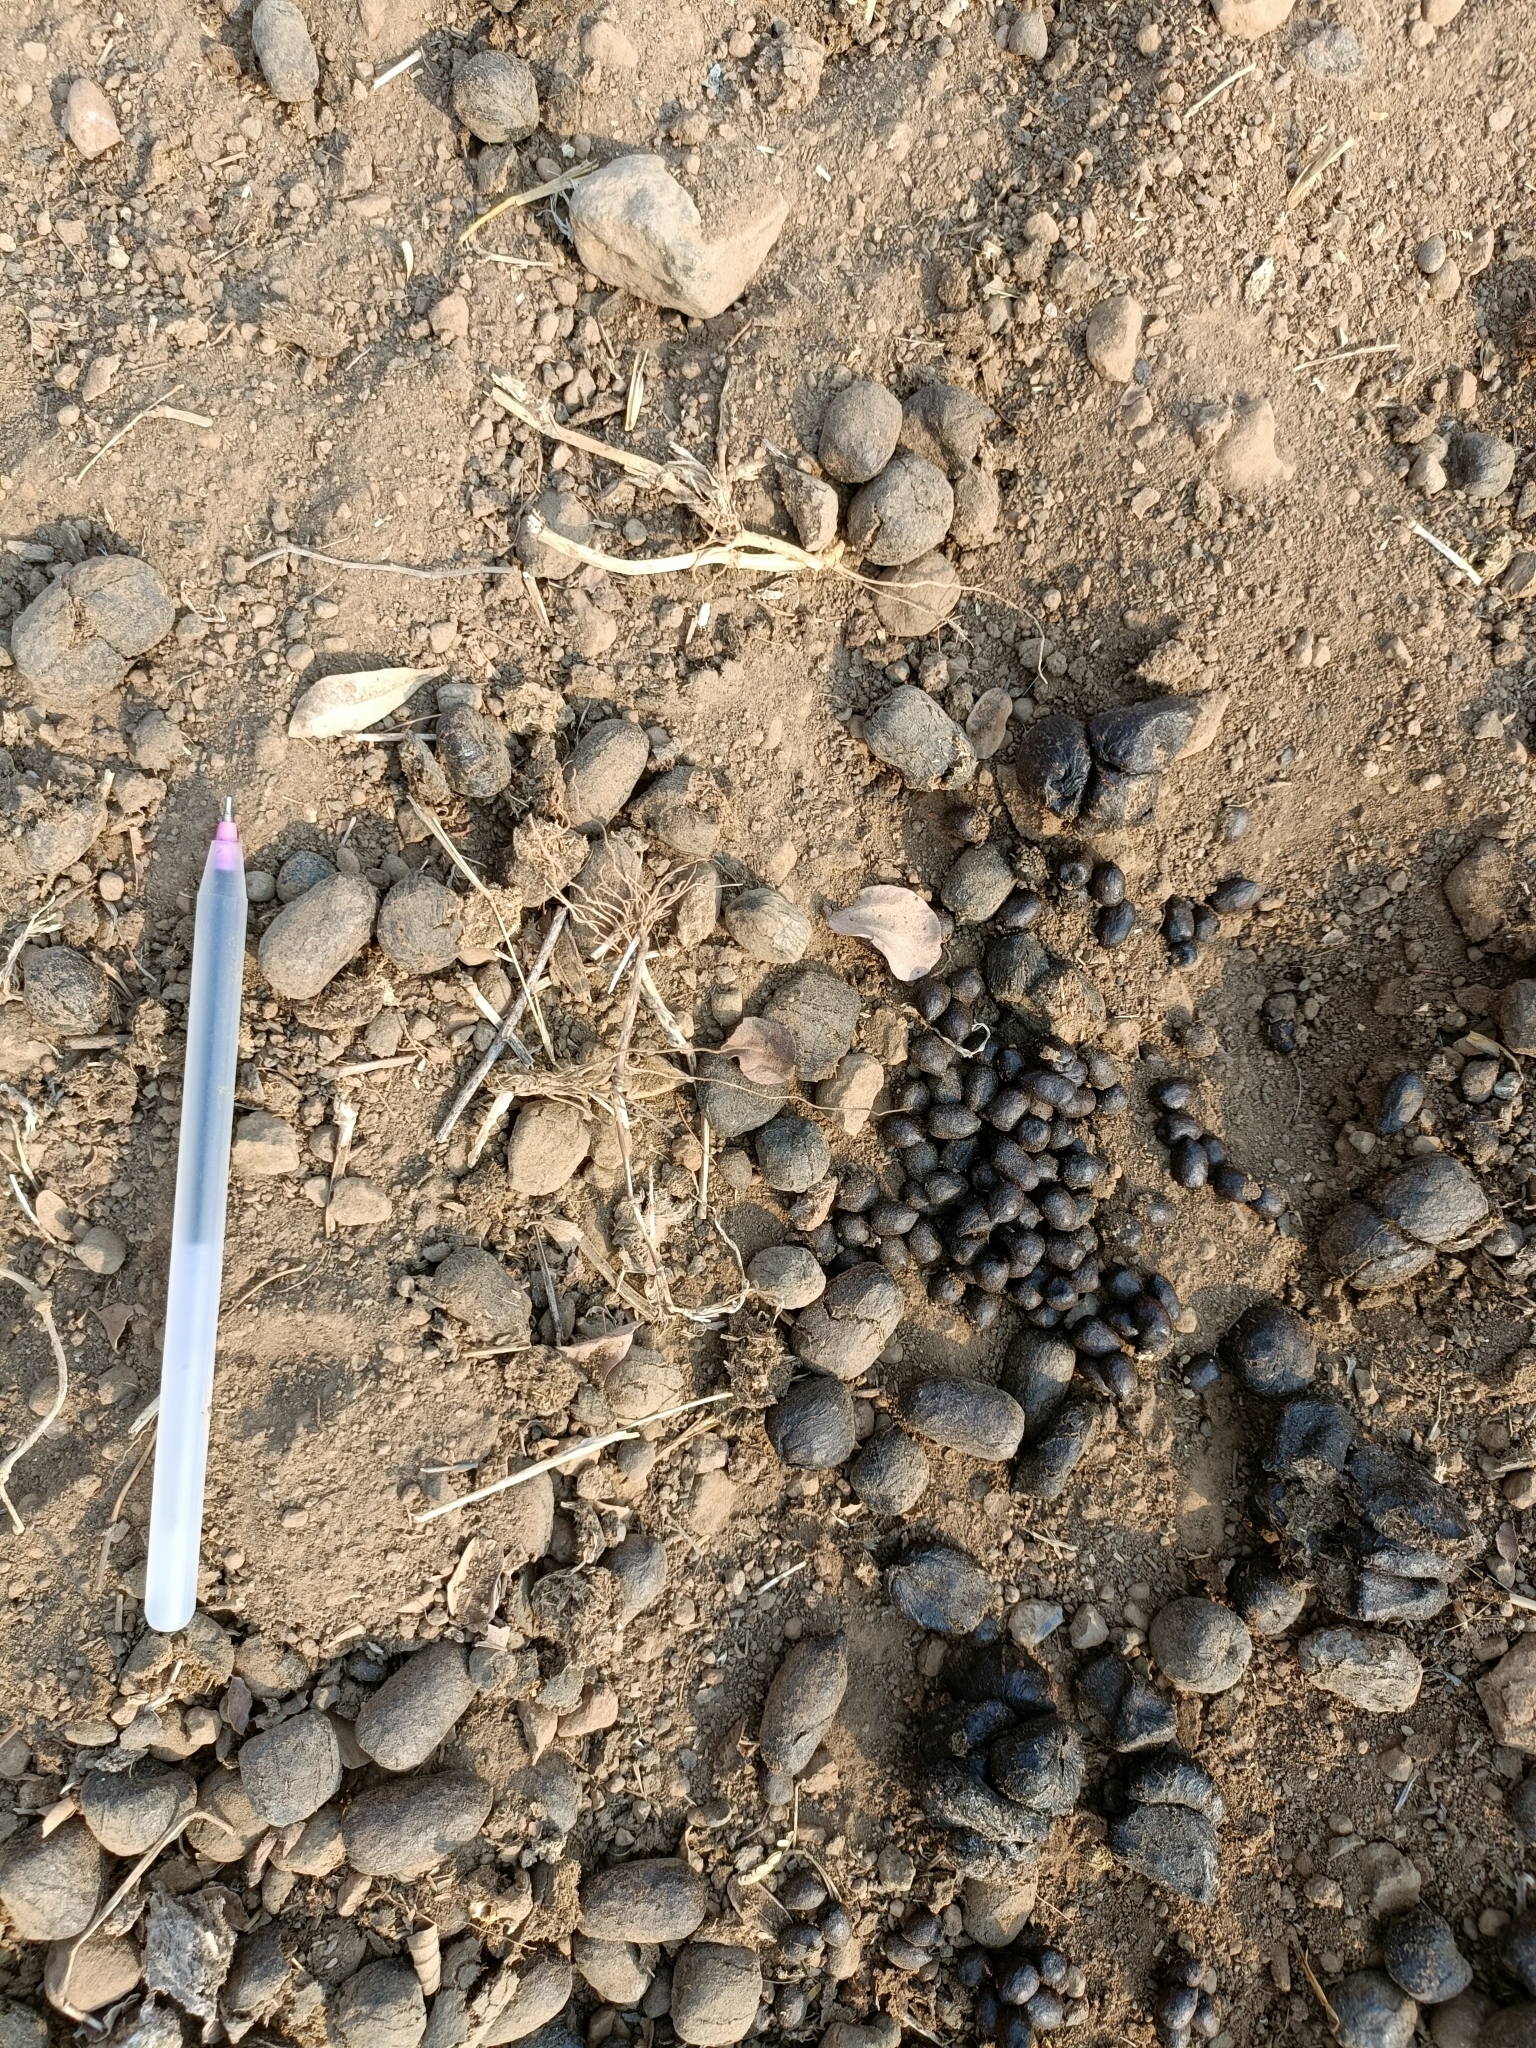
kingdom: Animalia
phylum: Chordata
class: Mammalia
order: Artiodactyla
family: Bovidae
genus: Gazella
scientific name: Gazella bennettii
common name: Indian gazelle
